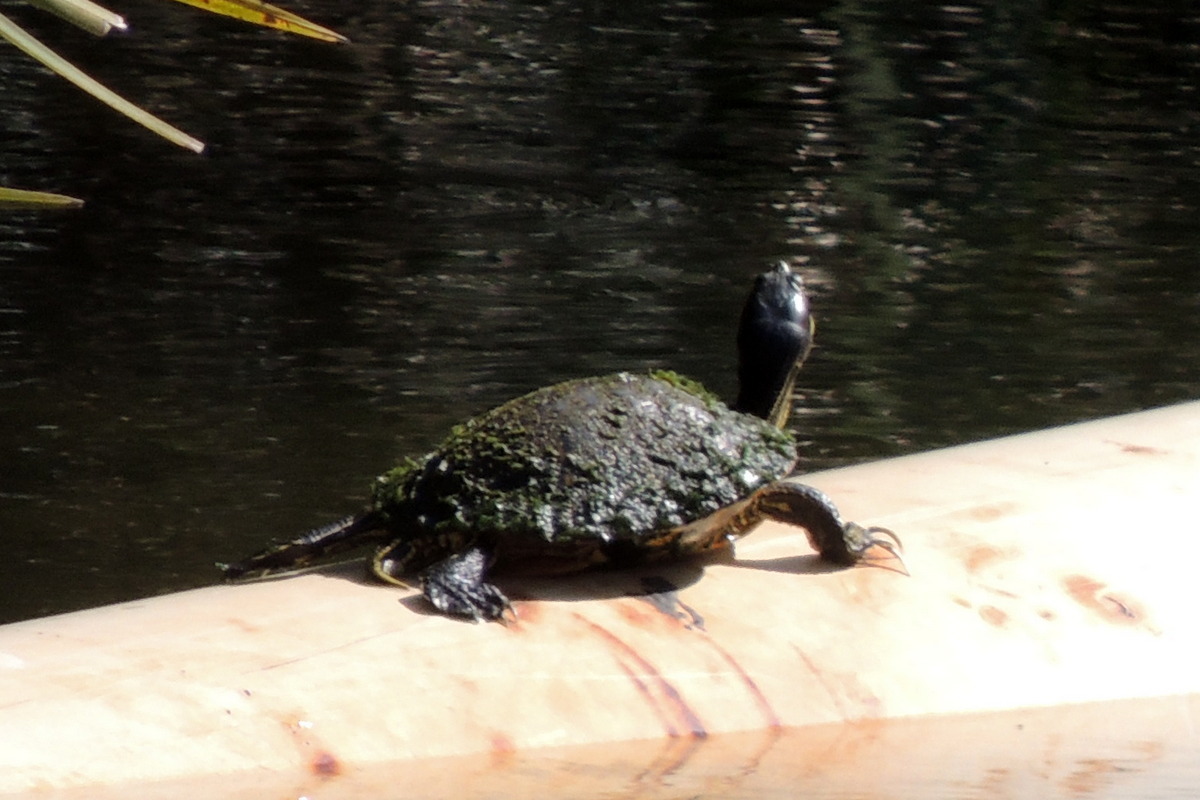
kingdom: Animalia
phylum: Chordata
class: Testudines
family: Emydidae
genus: Trachemys
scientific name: Trachemys scripta
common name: Slider
